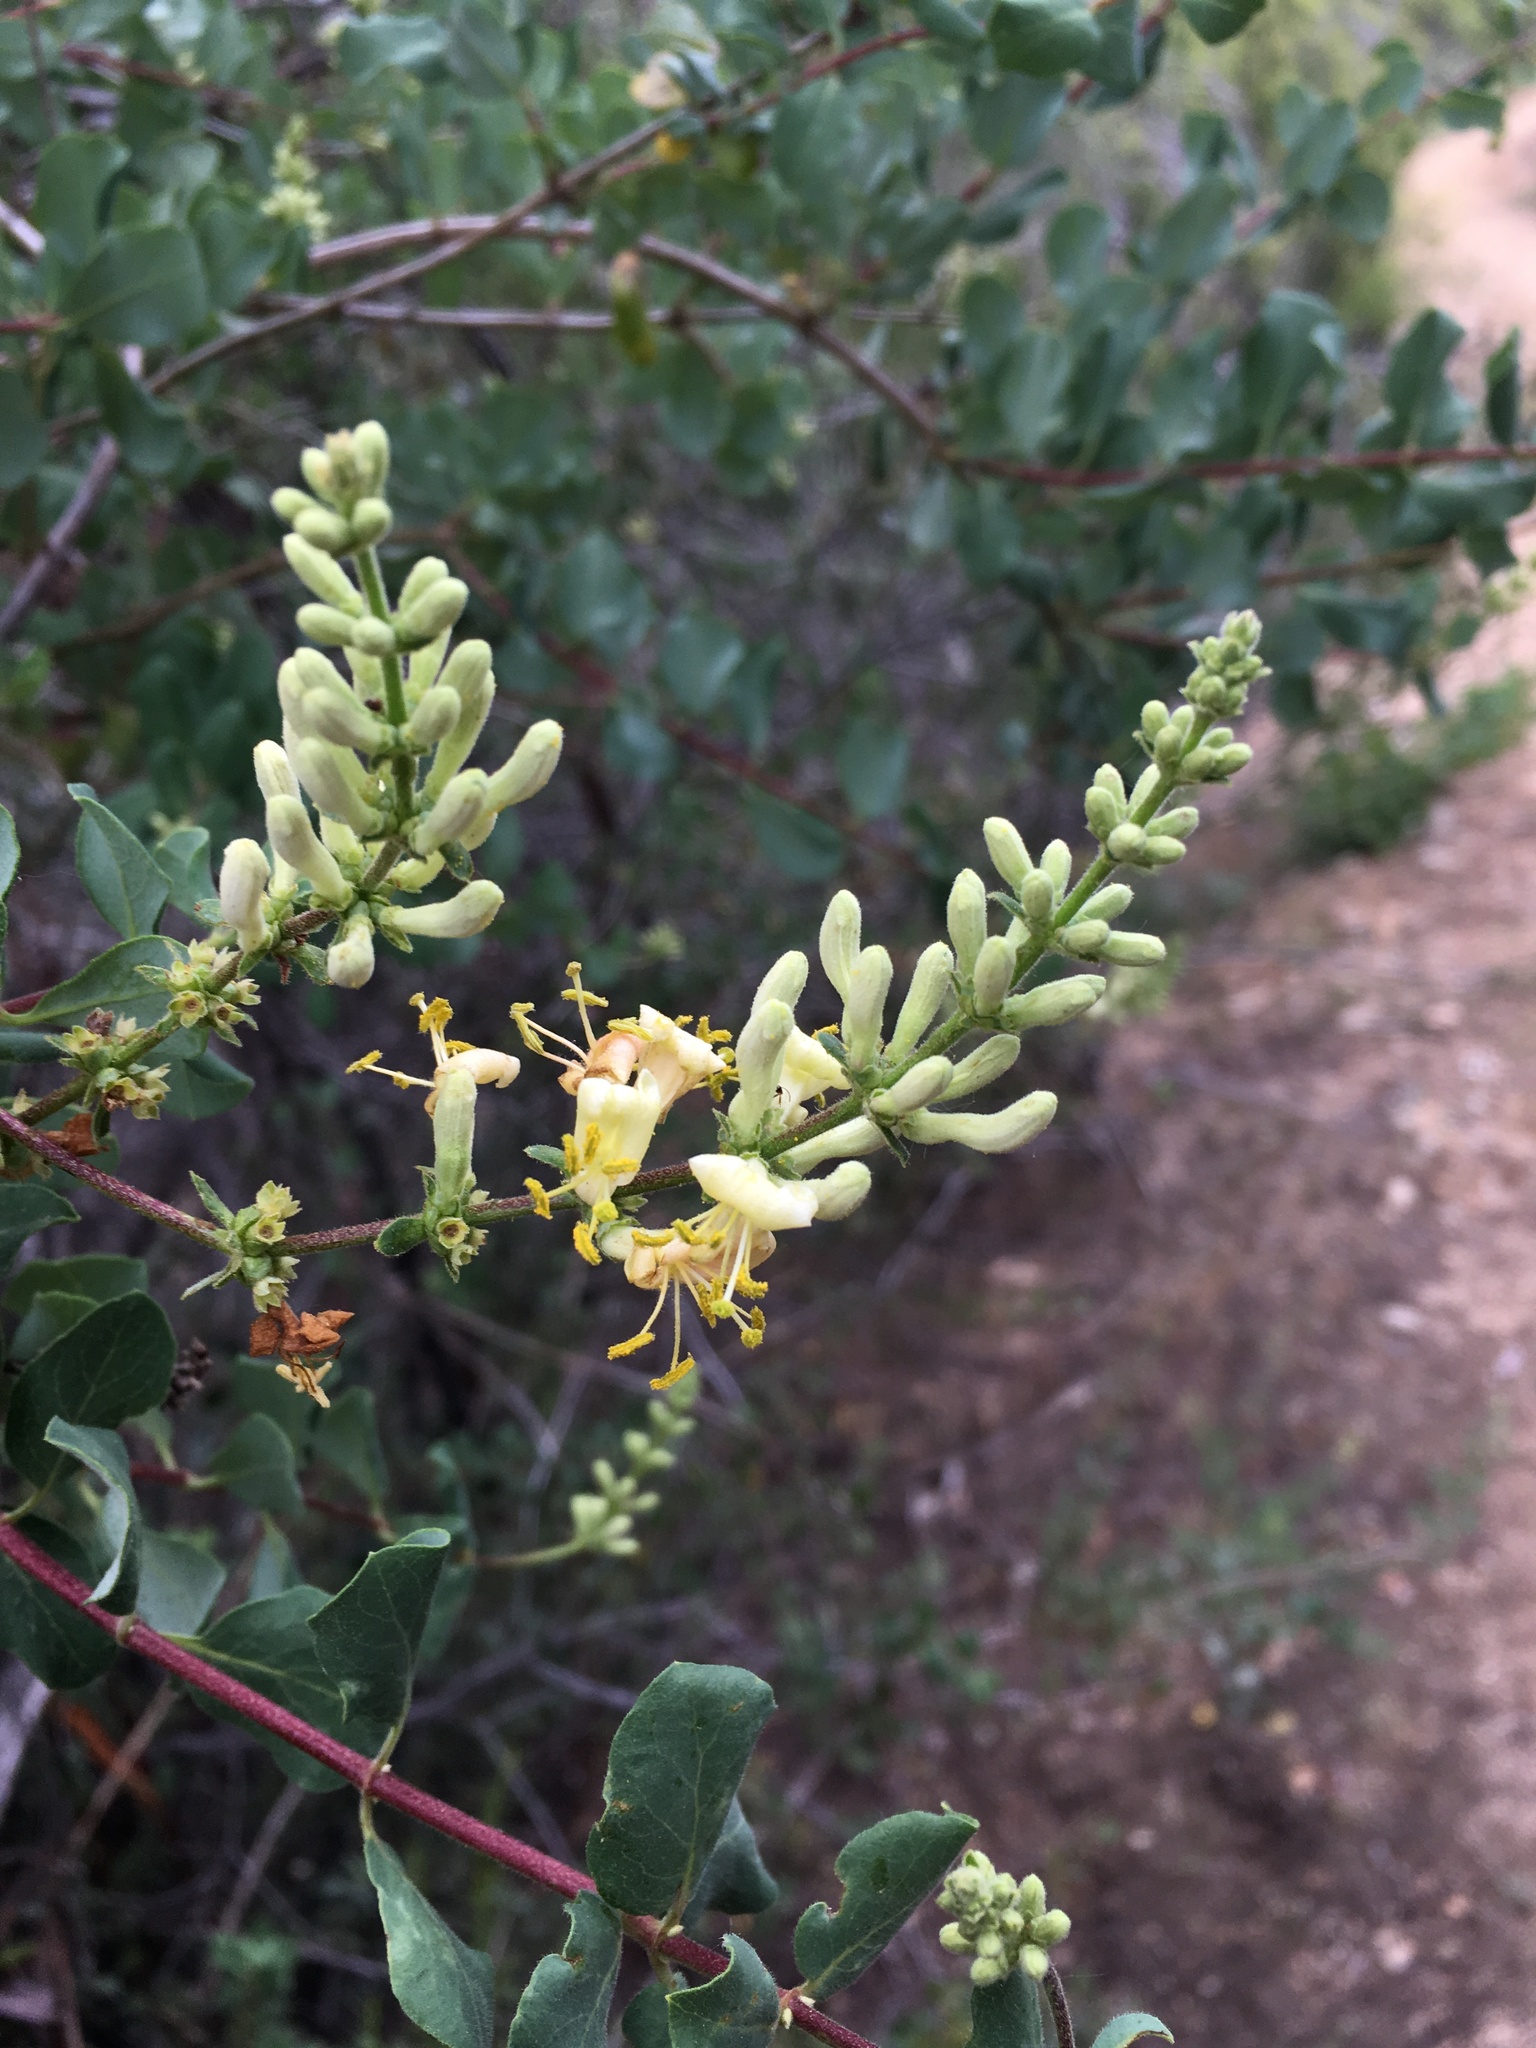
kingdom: Plantae
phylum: Tracheophyta
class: Magnoliopsida
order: Dipsacales
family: Caprifoliaceae
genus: Lonicera
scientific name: Lonicera subspicata
